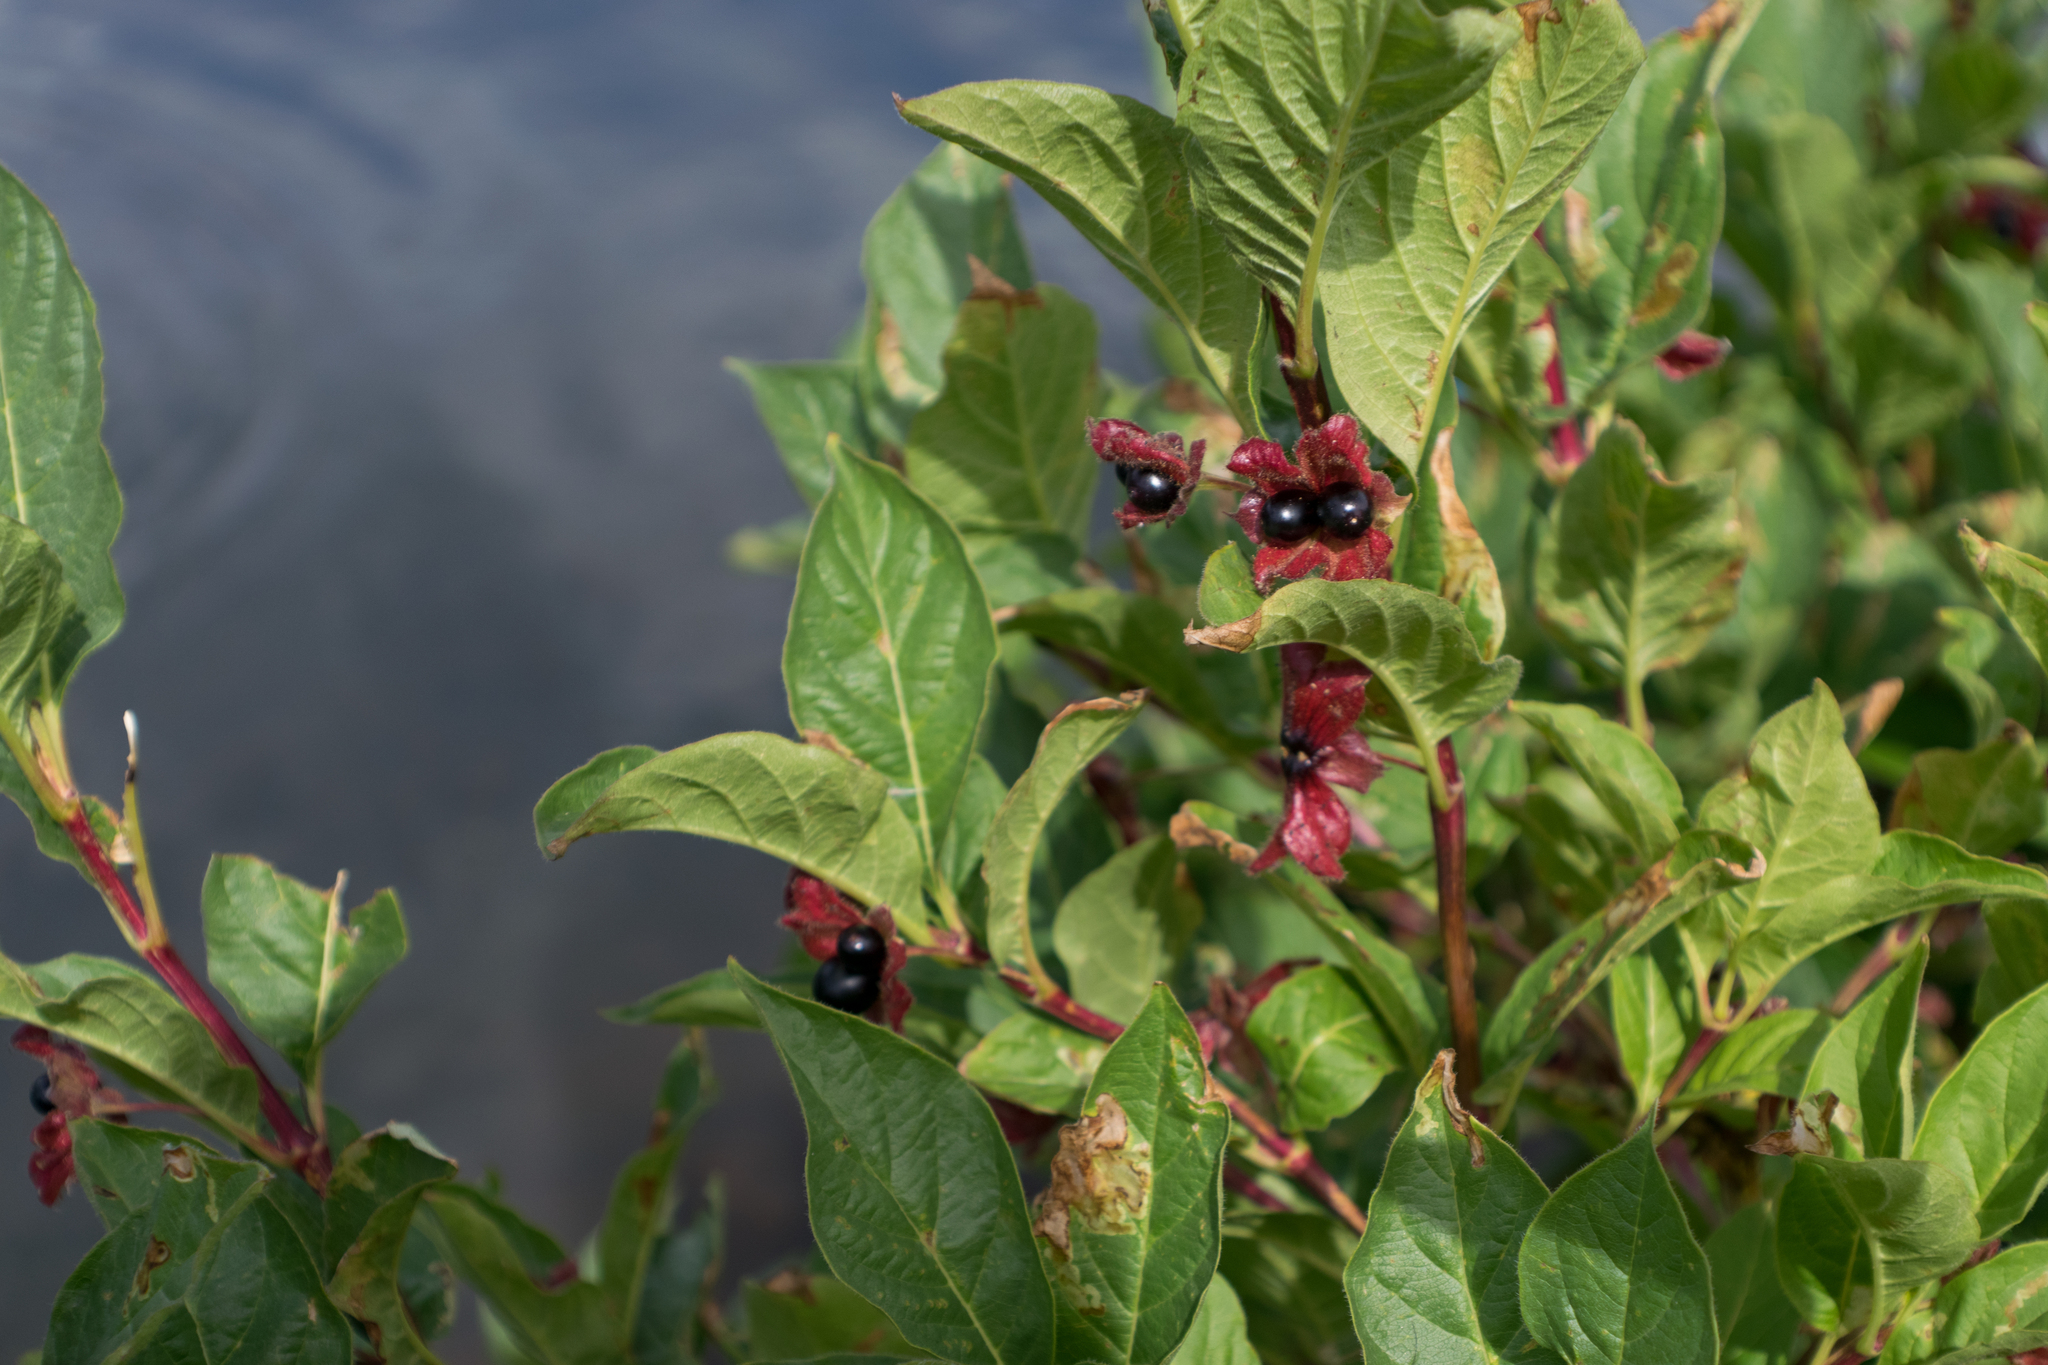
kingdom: Plantae
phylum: Tracheophyta
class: Magnoliopsida
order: Dipsacales
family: Caprifoliaceae
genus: Lonicera
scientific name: Lonicera involucrata
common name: Californian honeysuckle
